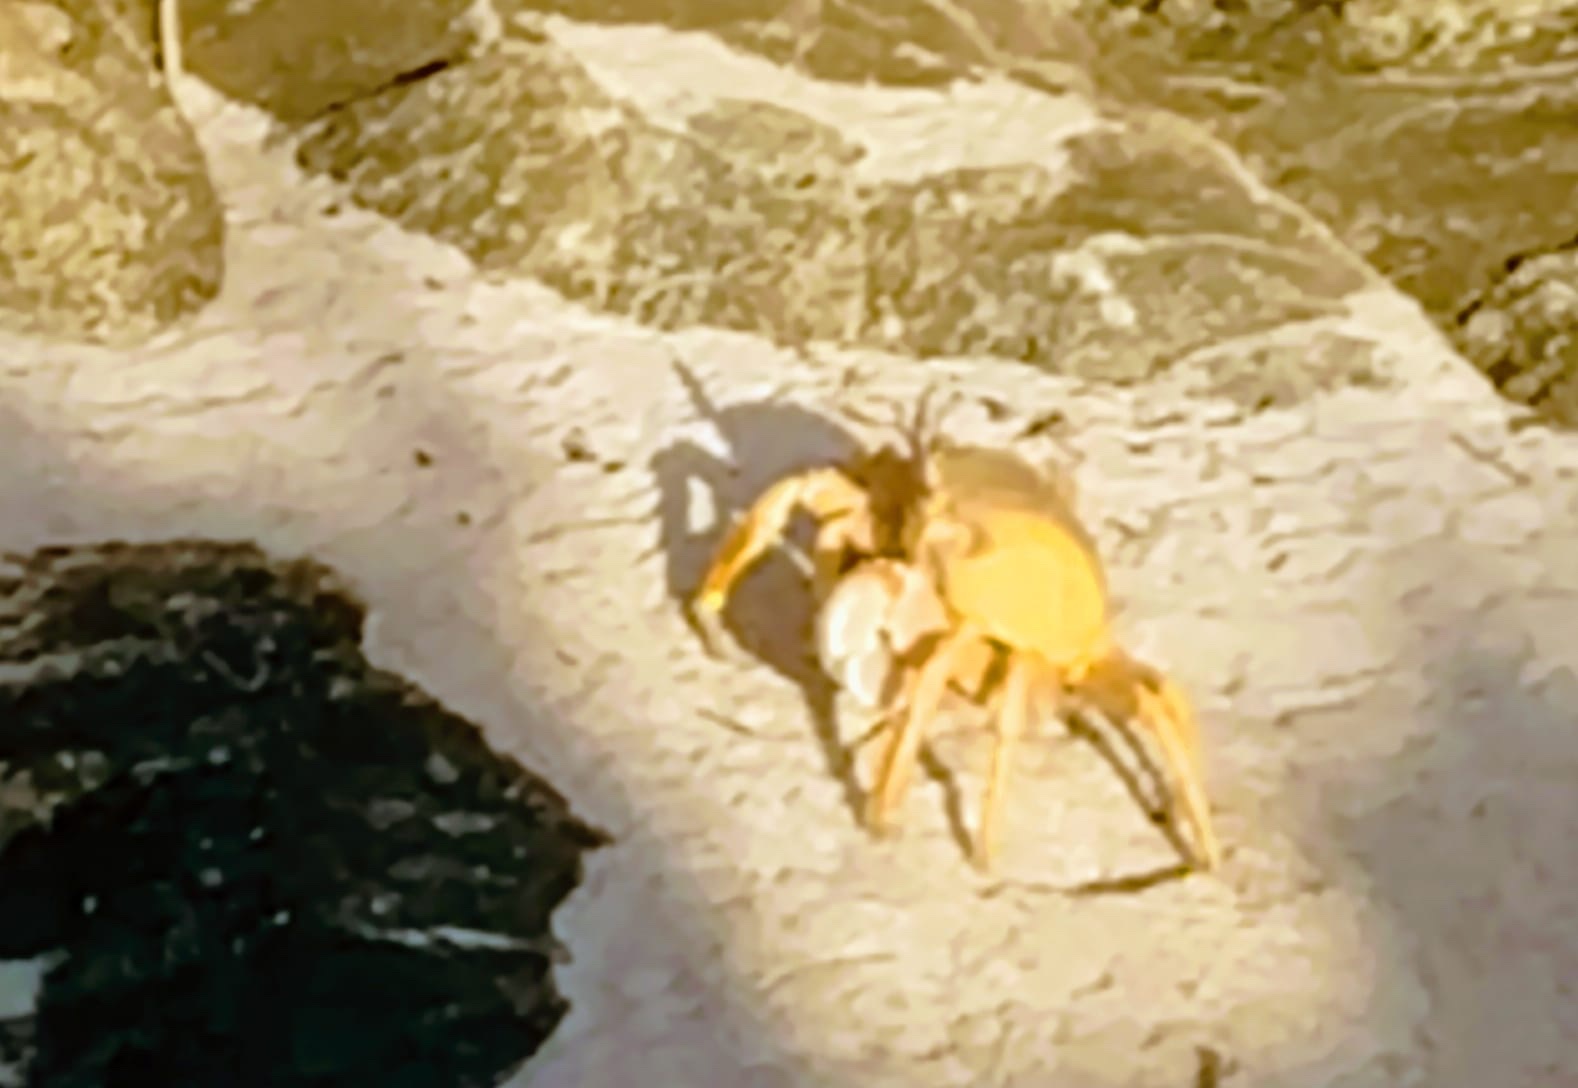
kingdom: Animalia
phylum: Arthropoda
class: Malacostraca
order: Decapoda
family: Ocypodidae
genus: Ocypode
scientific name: Ocypode saratan
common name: Red sea ghost crab
